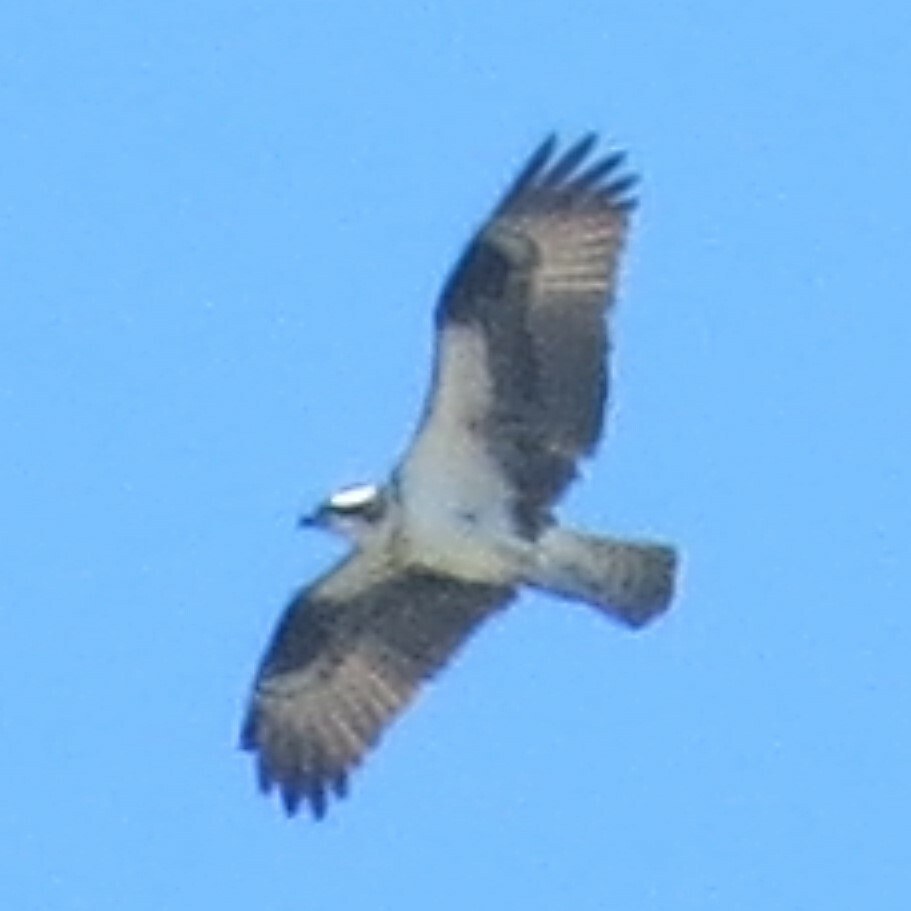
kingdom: Animalia
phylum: Chordata
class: Aves
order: Accipitriformes
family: Pandionidae
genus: Pandion
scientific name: Pandion haliaetus
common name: Osprey
